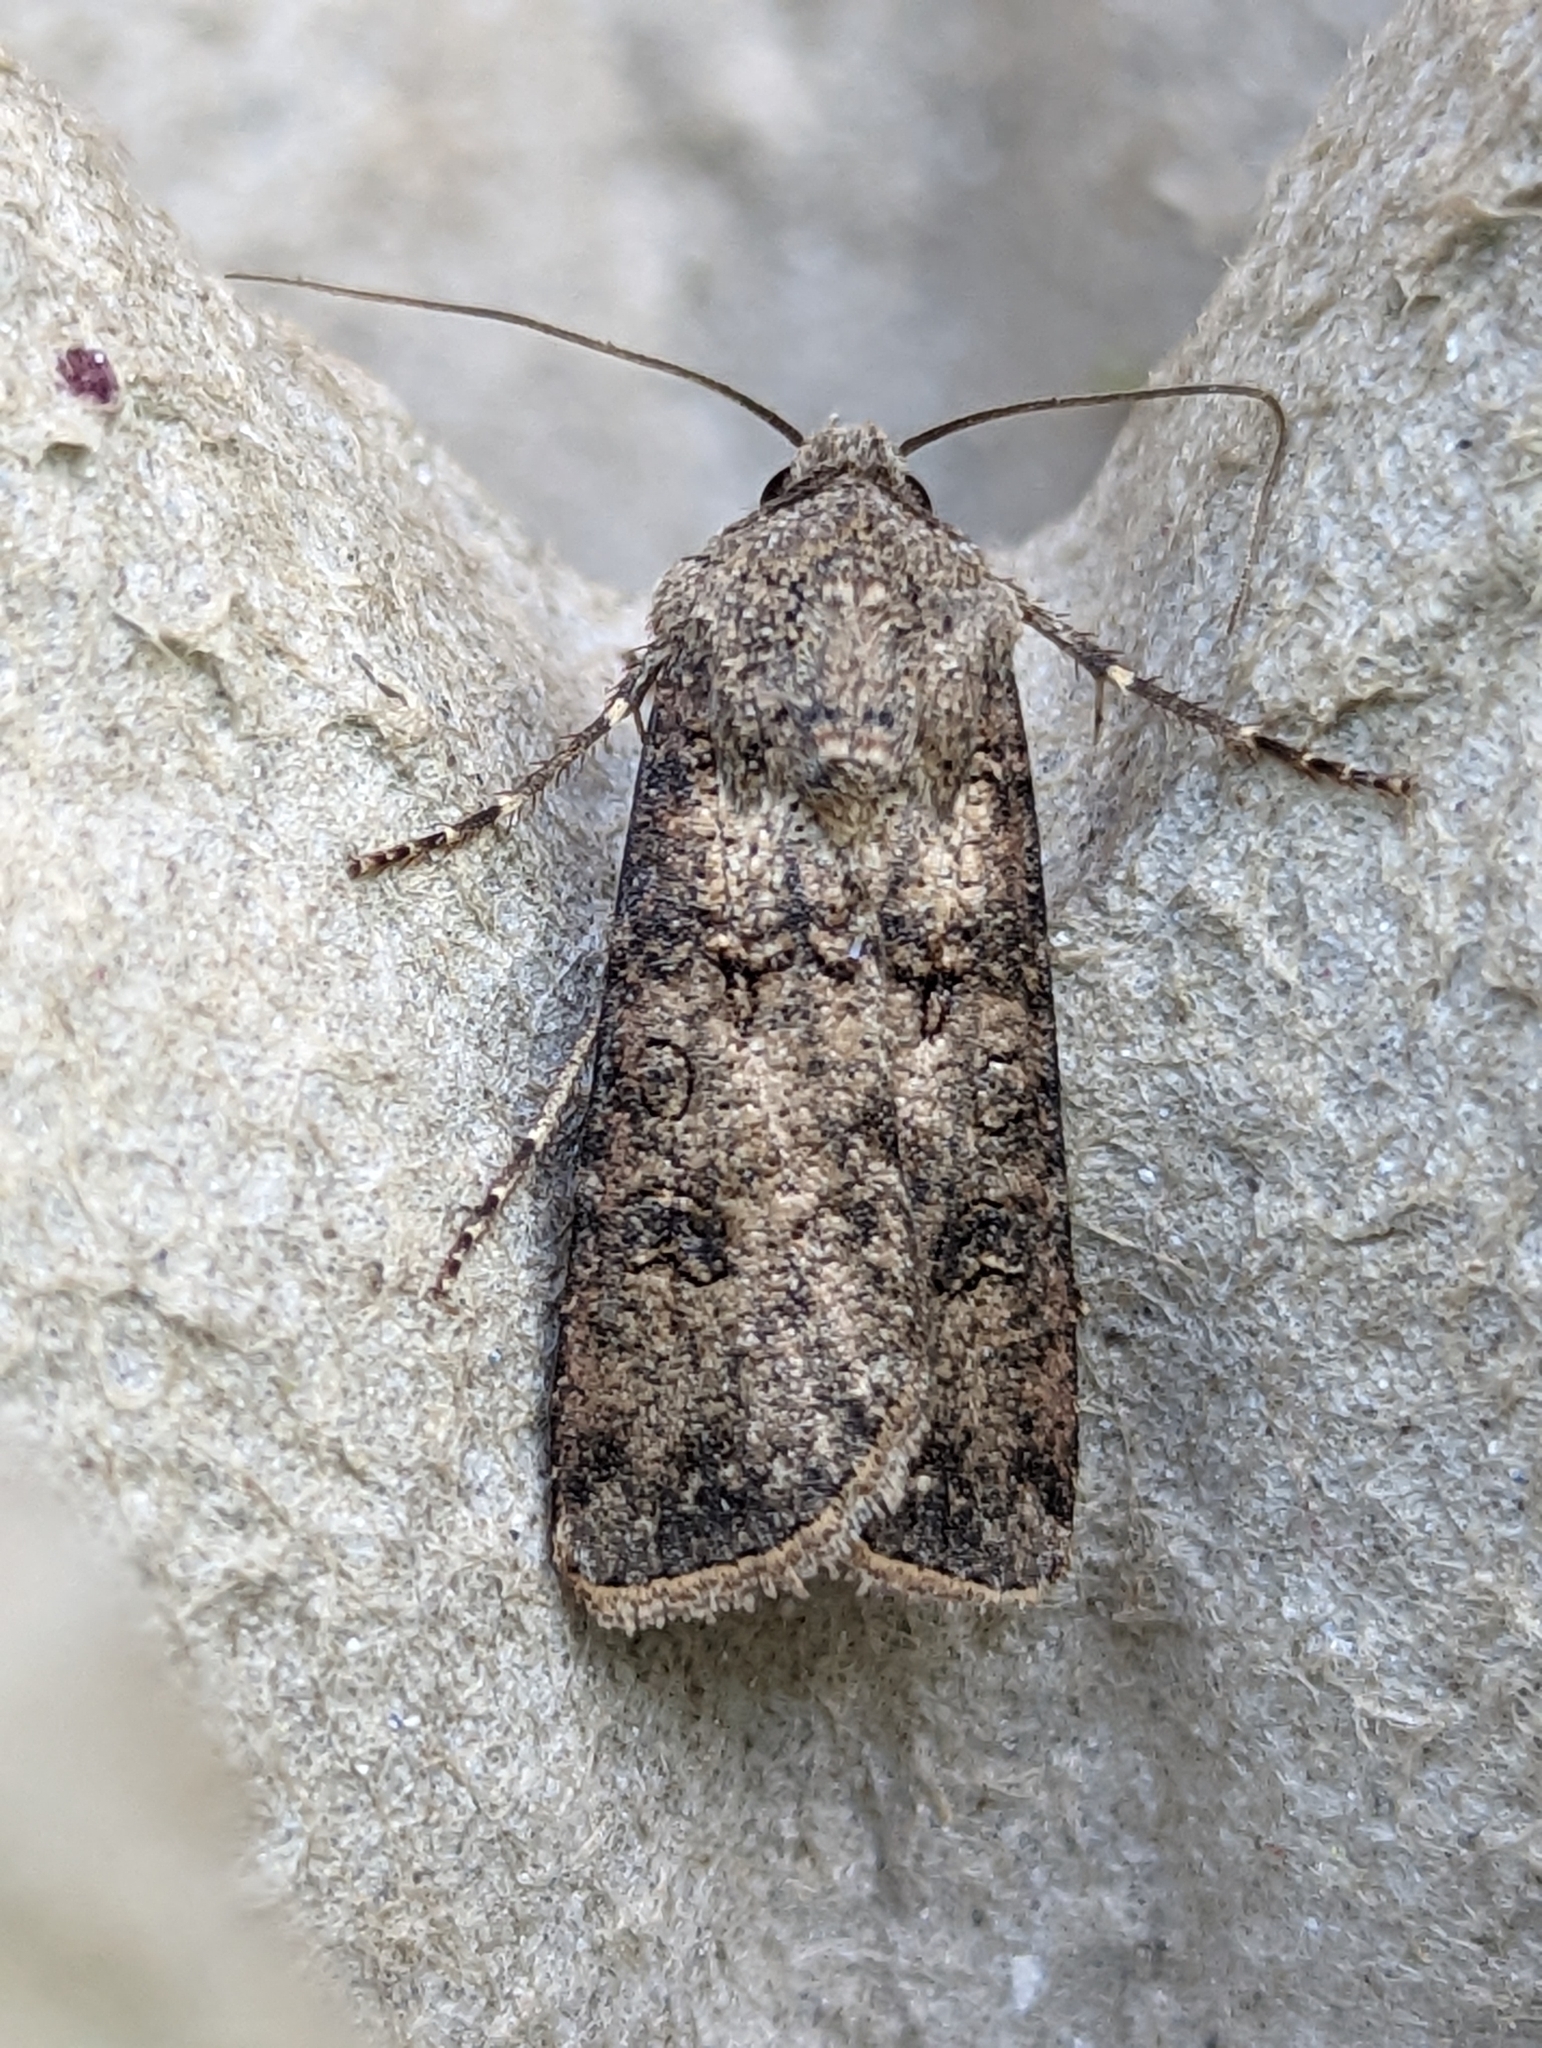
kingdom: Animalia
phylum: Arthropoda
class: Insecta
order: Lepidoptera
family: Noctuidae
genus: Agrotis
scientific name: Agrotis segetum
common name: Turnip moth
